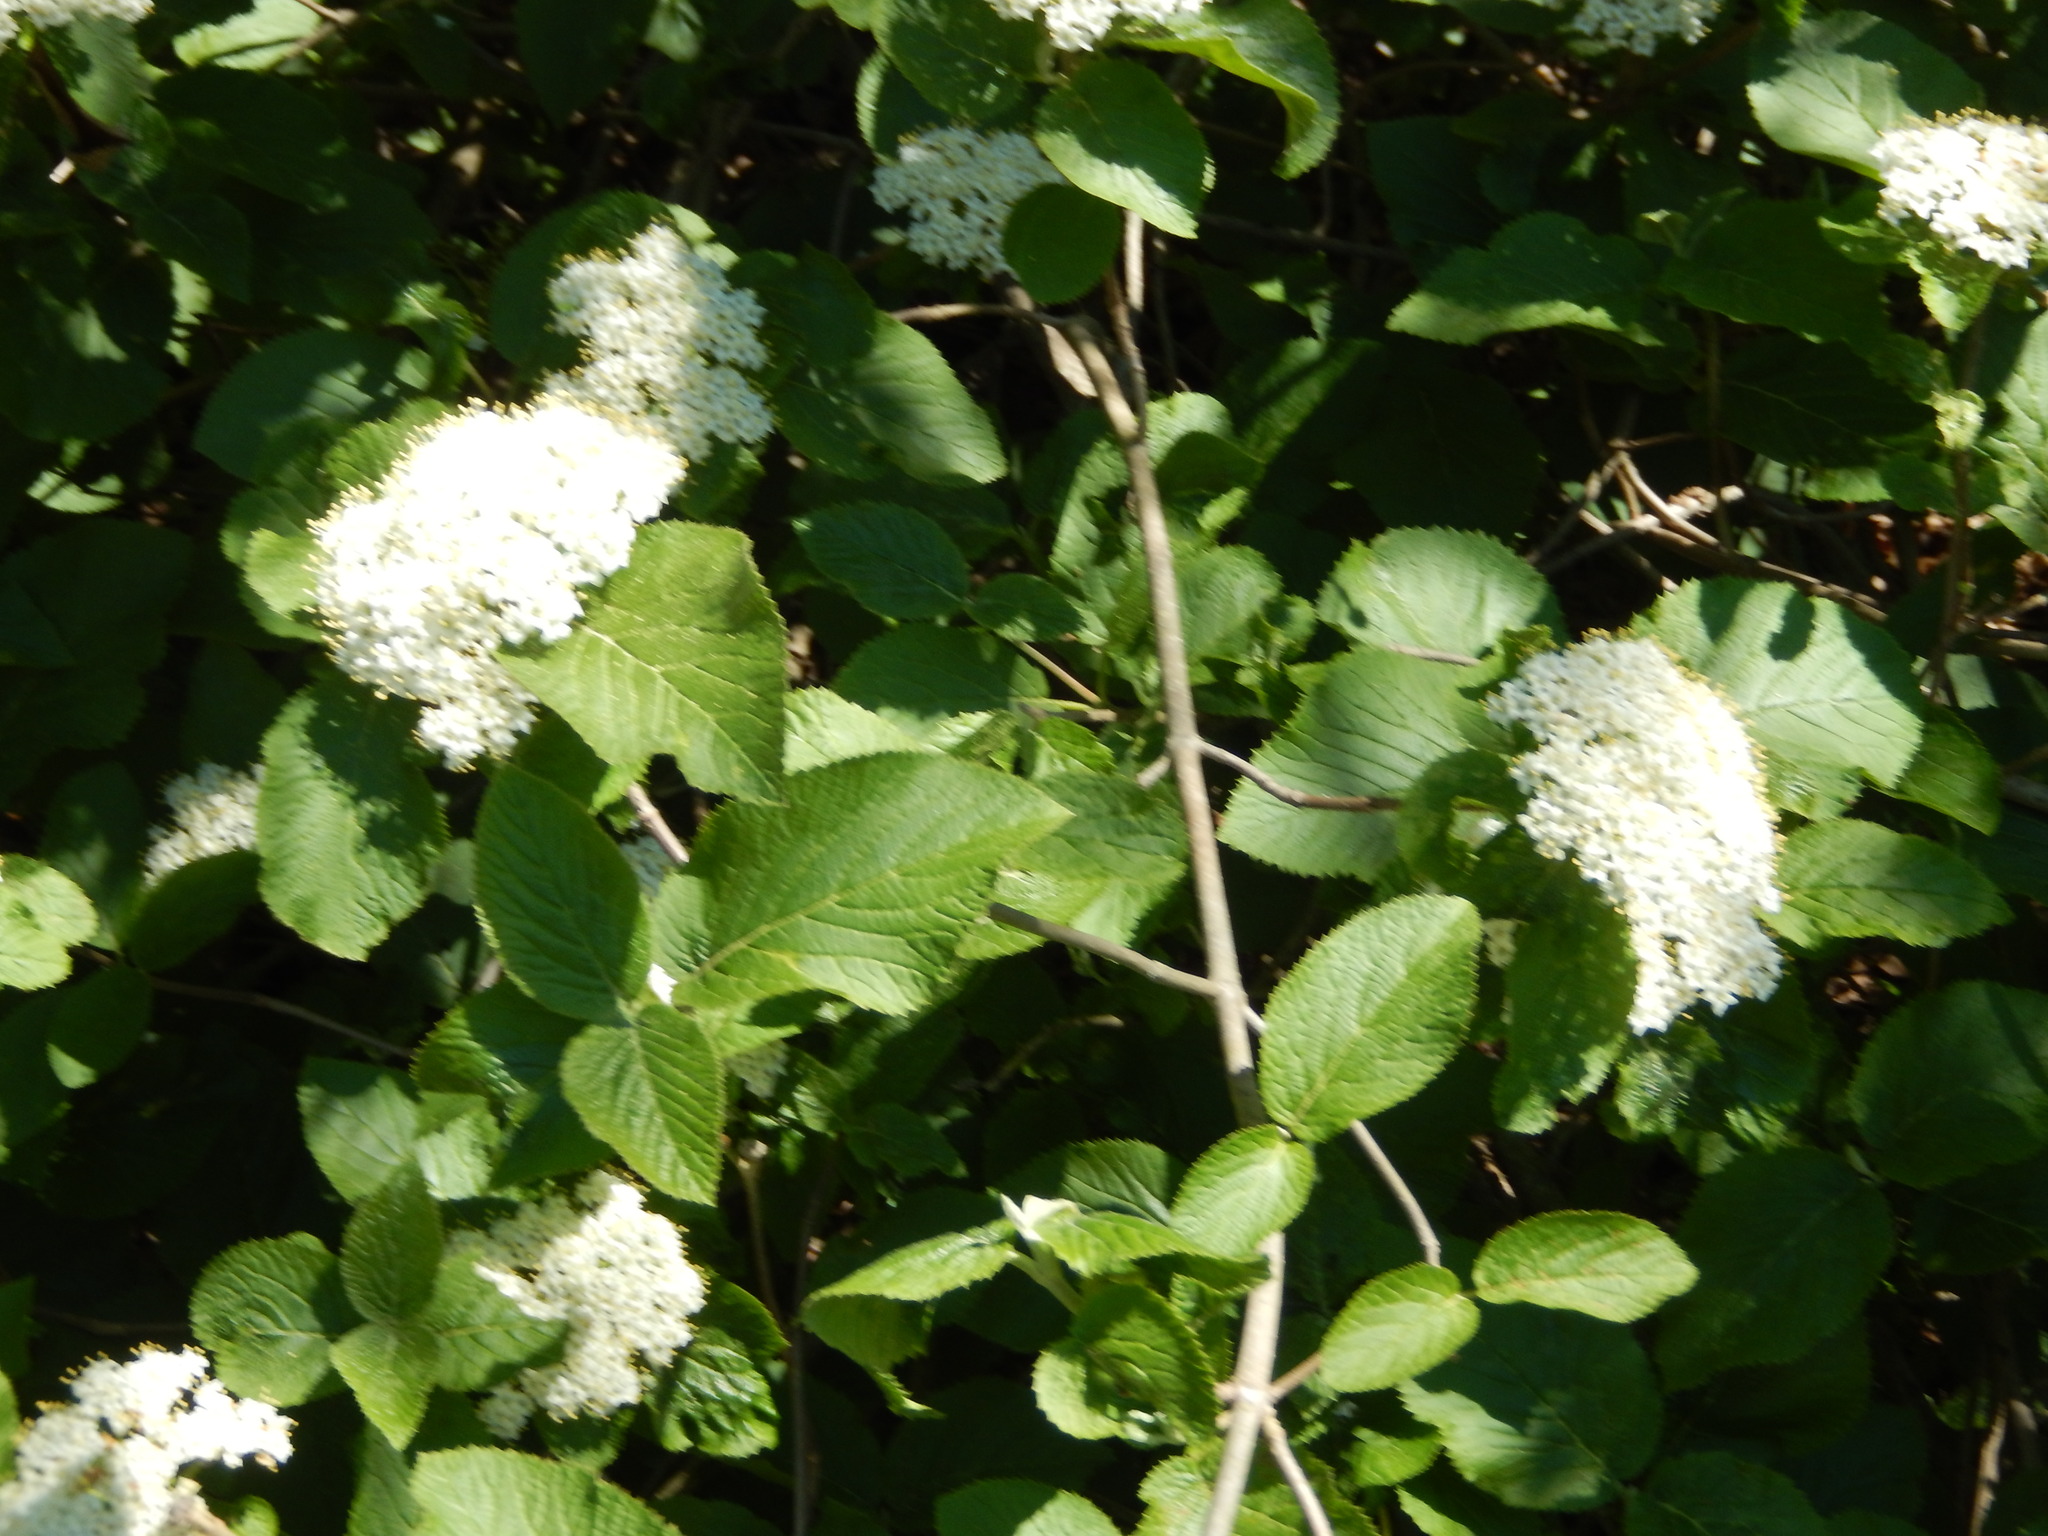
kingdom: Plantae
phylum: Tracheophyta
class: Magnoliopsida
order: Dipsacales
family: Viburnaceae
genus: Viburnum
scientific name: Viburnum lantana
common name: Wayfaring tree
